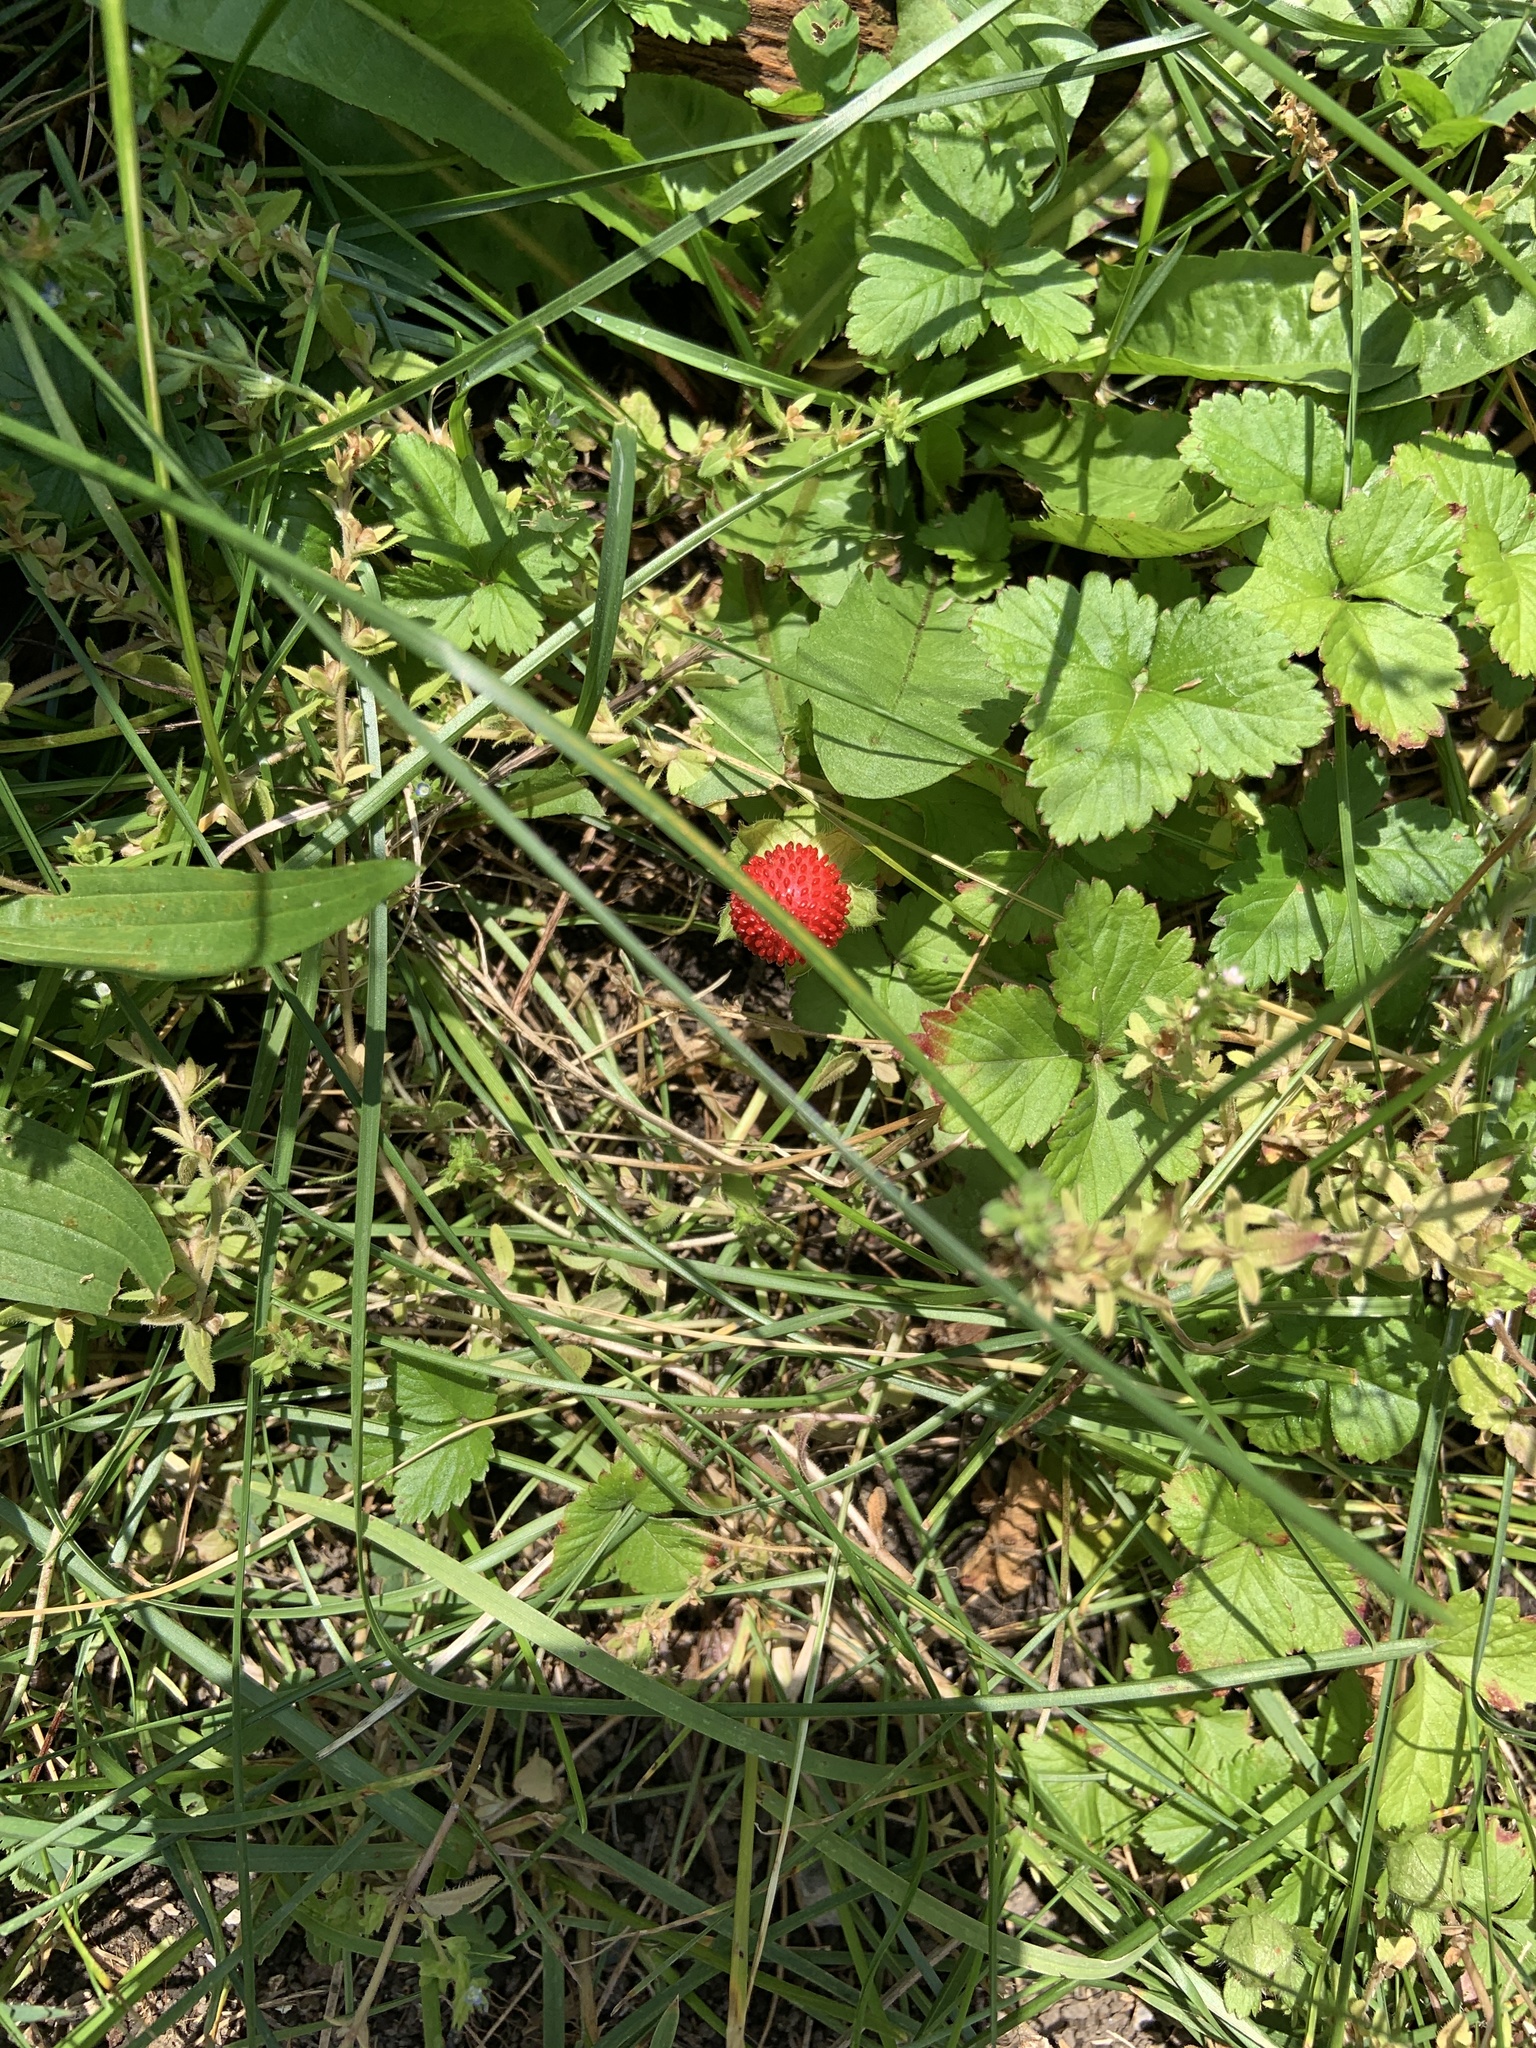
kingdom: Plantae
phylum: Tracheophyta
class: Magnoliopsida
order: Rosales
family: Rosaceae
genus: Potentilla
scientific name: Potentilla indica
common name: Yellow-flowered strawberry
